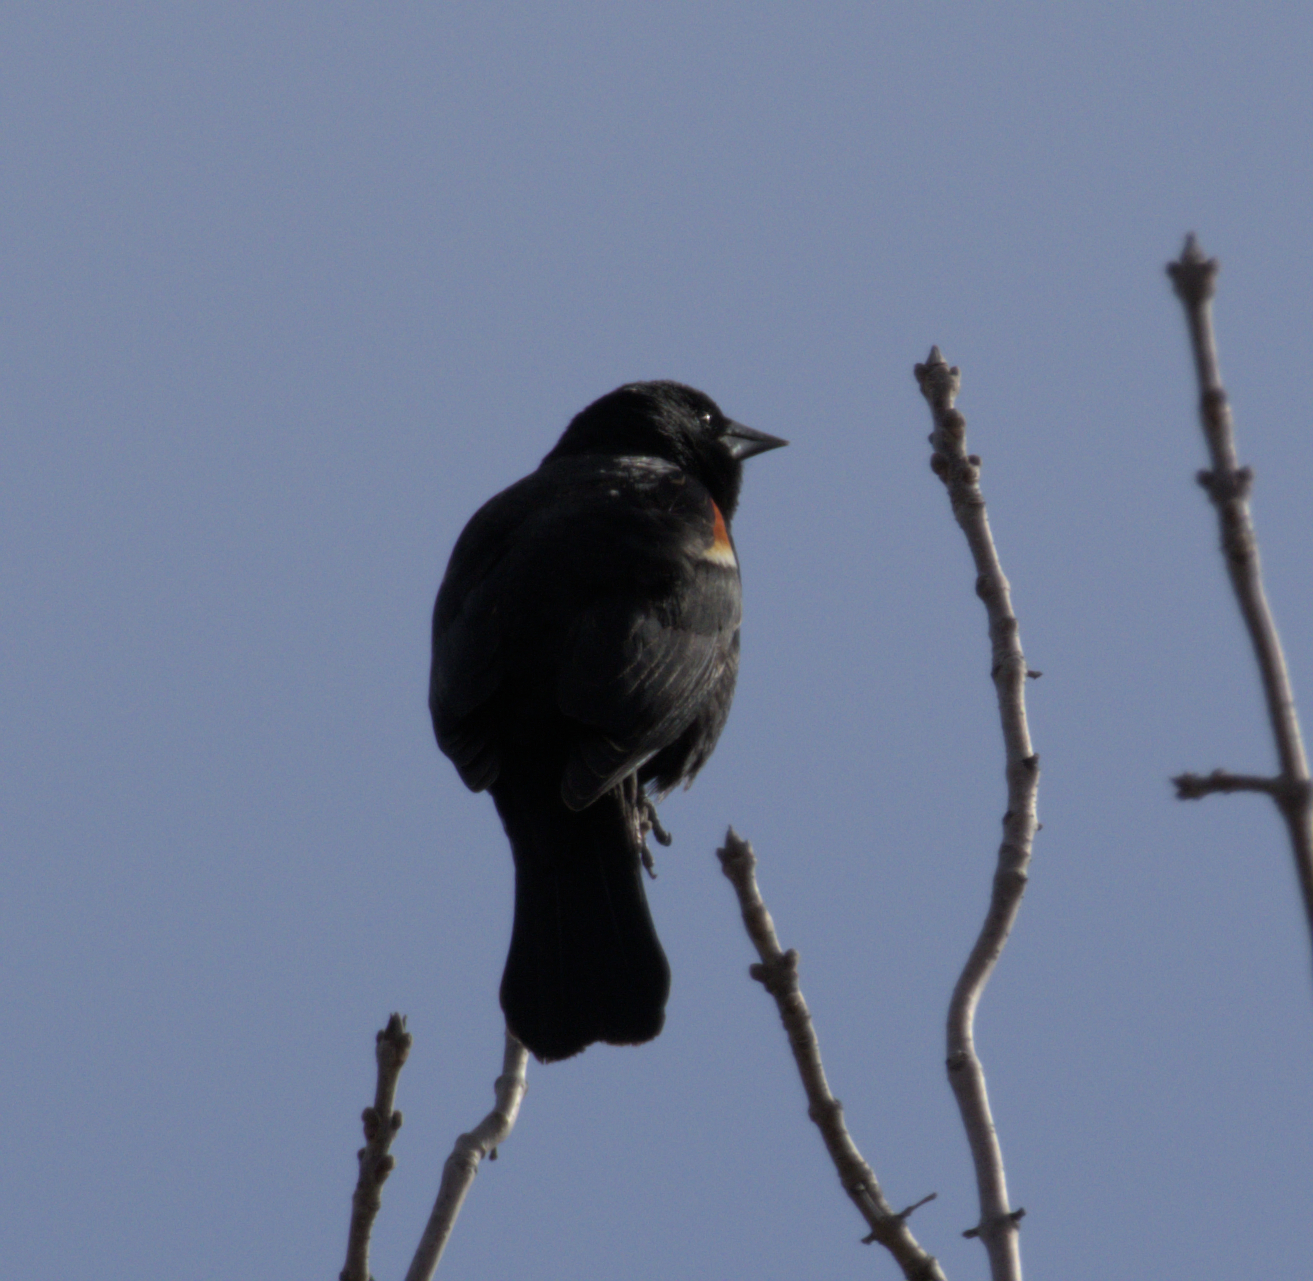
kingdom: Animalia
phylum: Chordata
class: Aves
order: Passeriformes
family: Icteridae
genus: Agelaius
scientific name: Agelaius phoeniceus
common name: Red-winged blackbird
